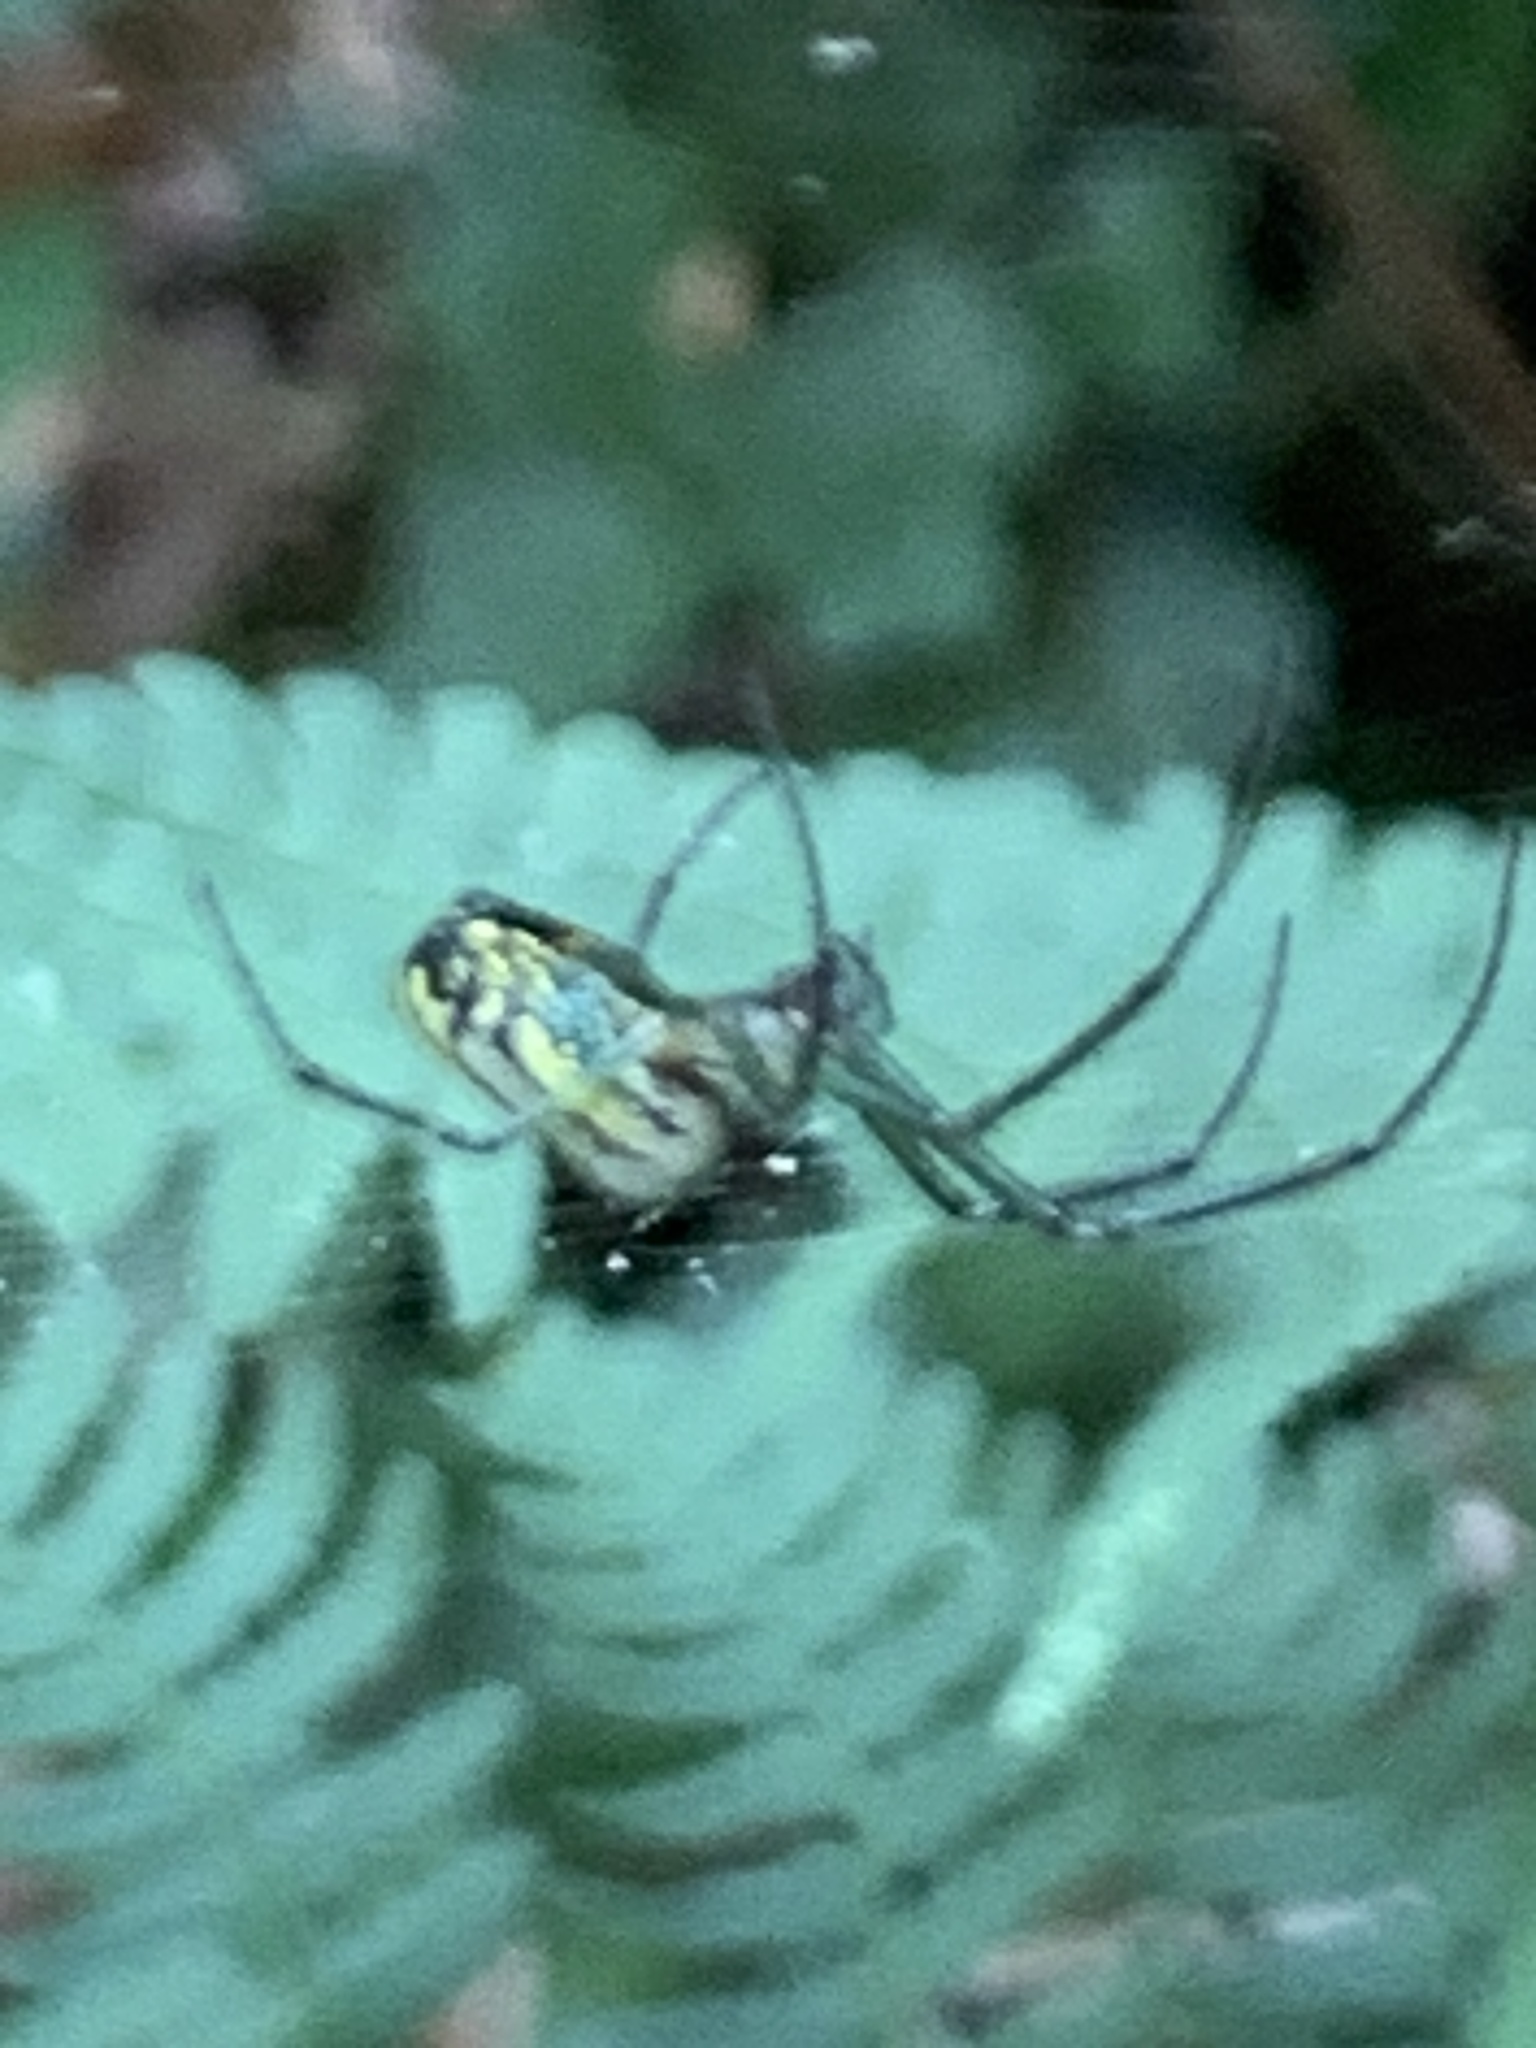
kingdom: Animalia
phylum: Arthropoda
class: Arachnida
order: Araneae
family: Tetragnathidae
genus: Leucauge
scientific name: Leucauge venusta
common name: Longjawed orb weavers
